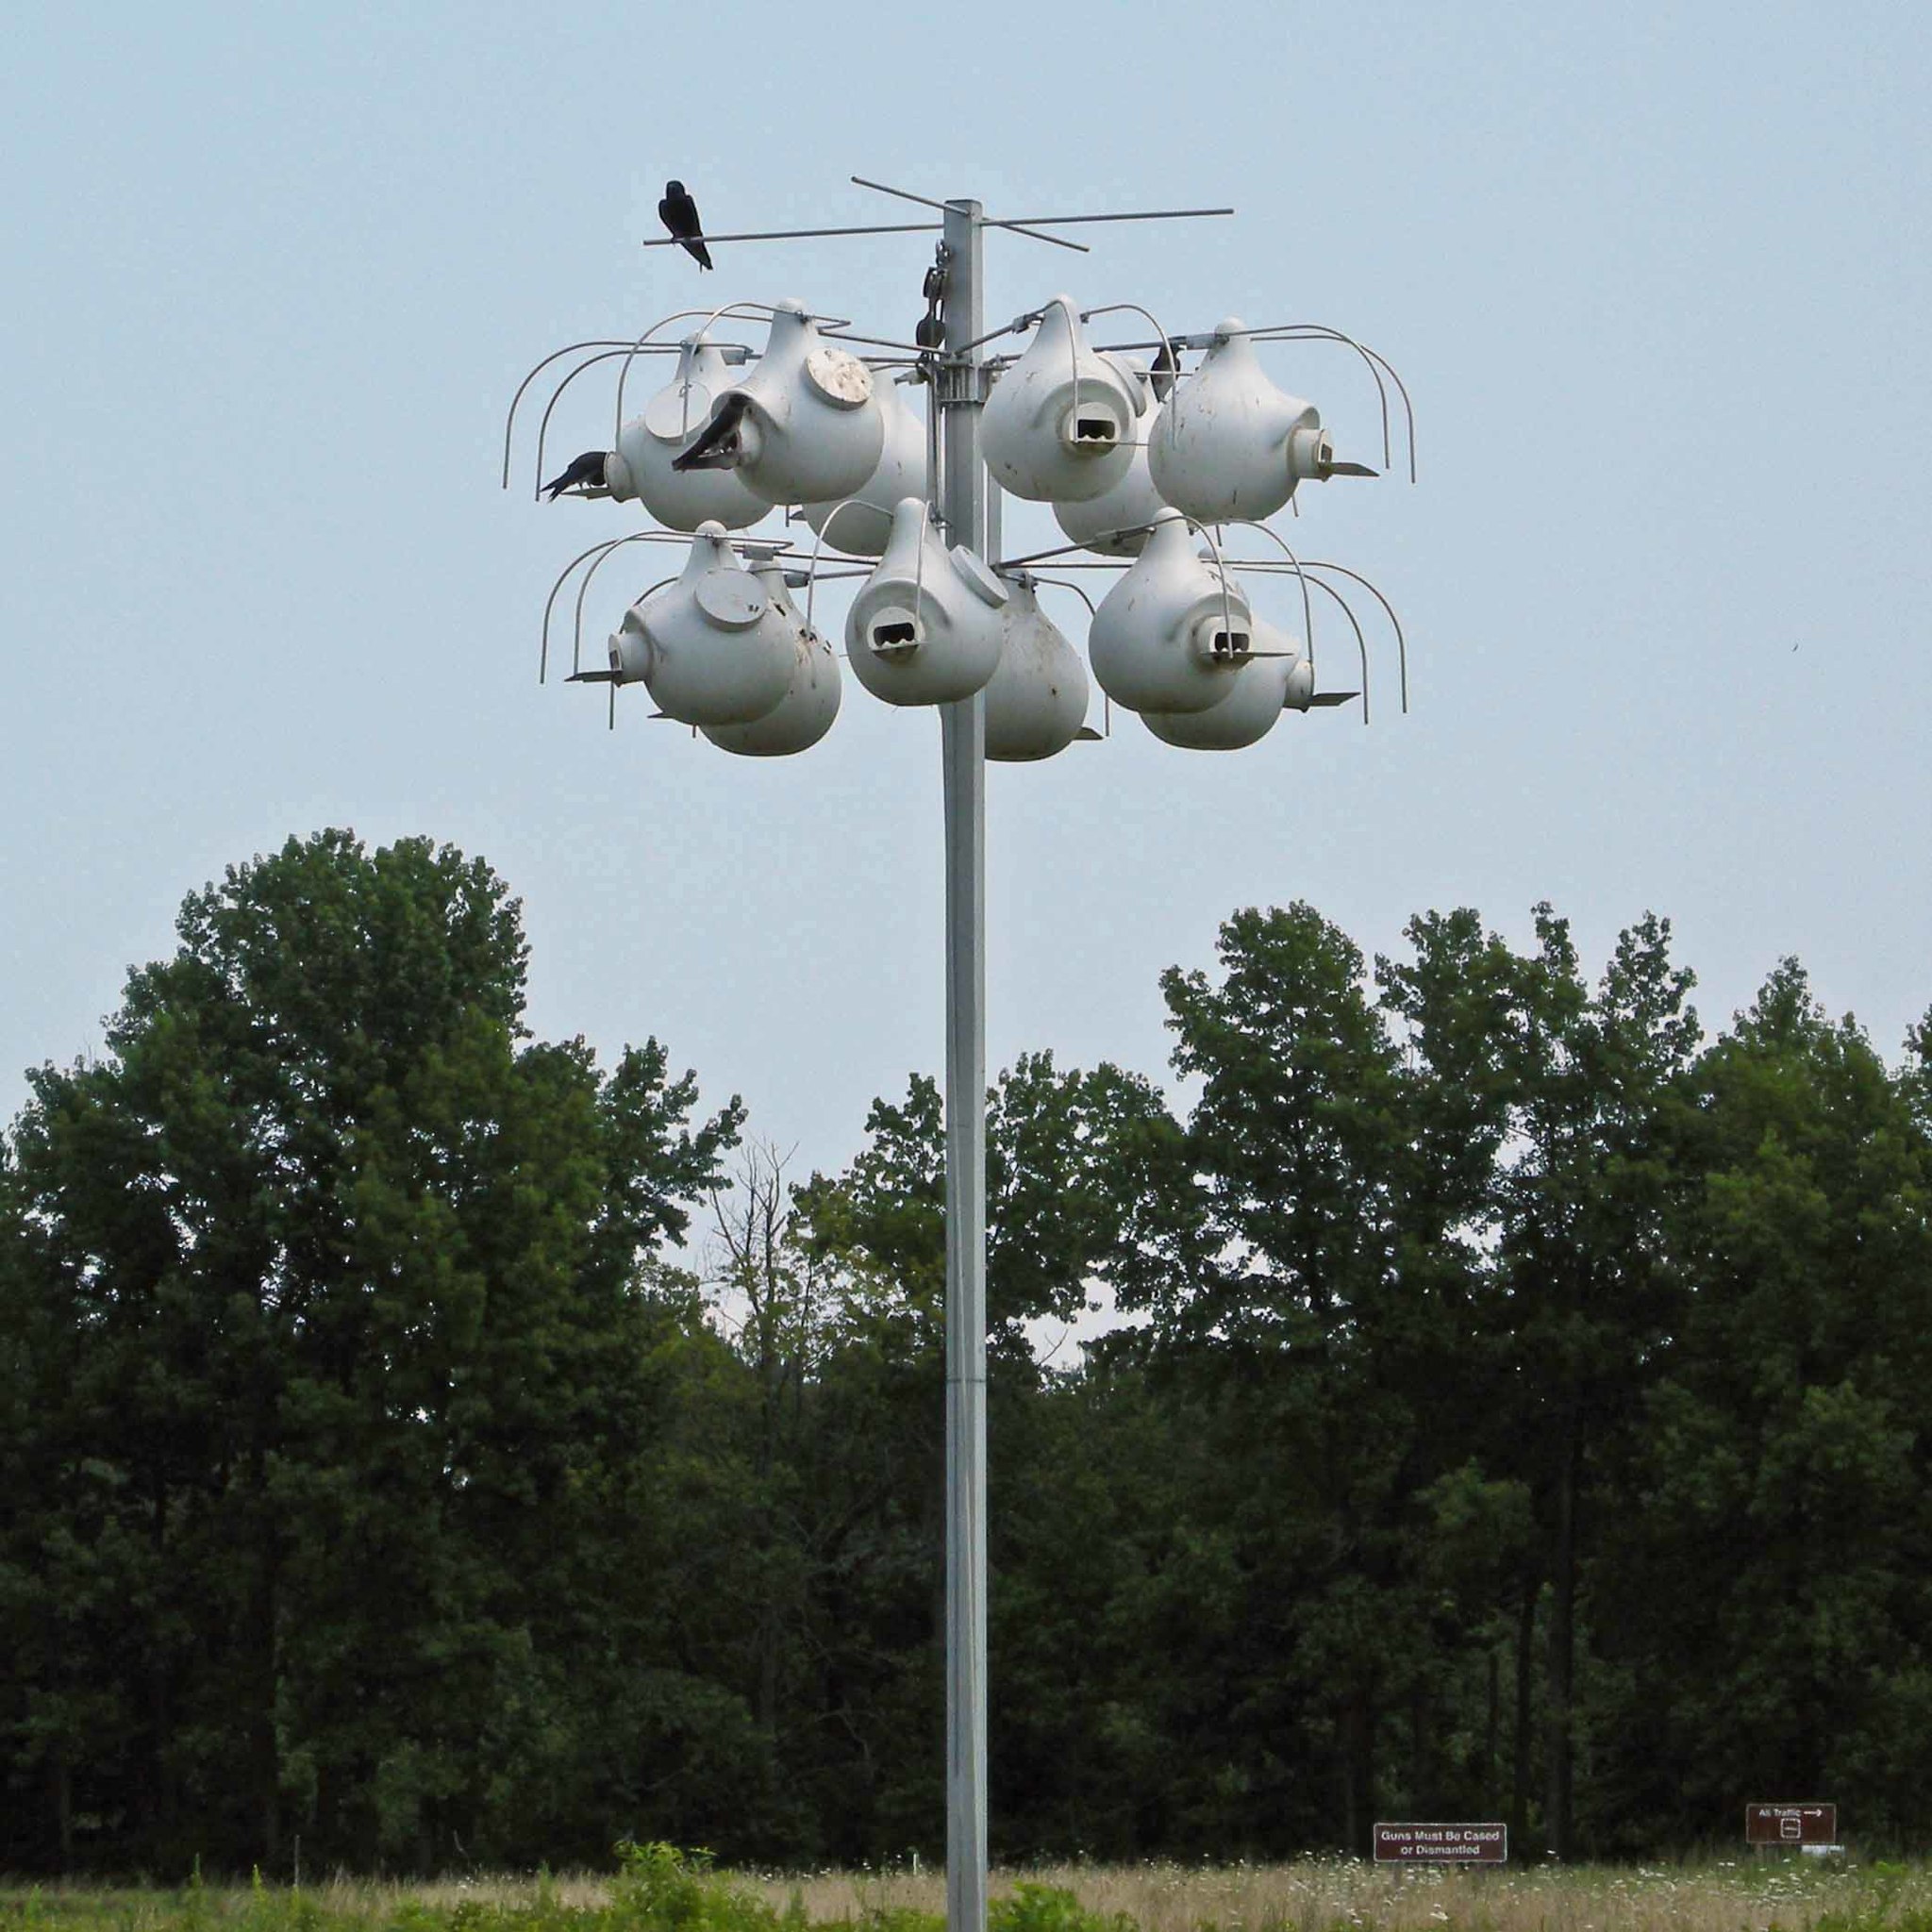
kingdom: Animalia
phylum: Chordata
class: Aves
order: Passeriformes
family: Hirundinidae
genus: Progne
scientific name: Progne subis
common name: Purple martin
